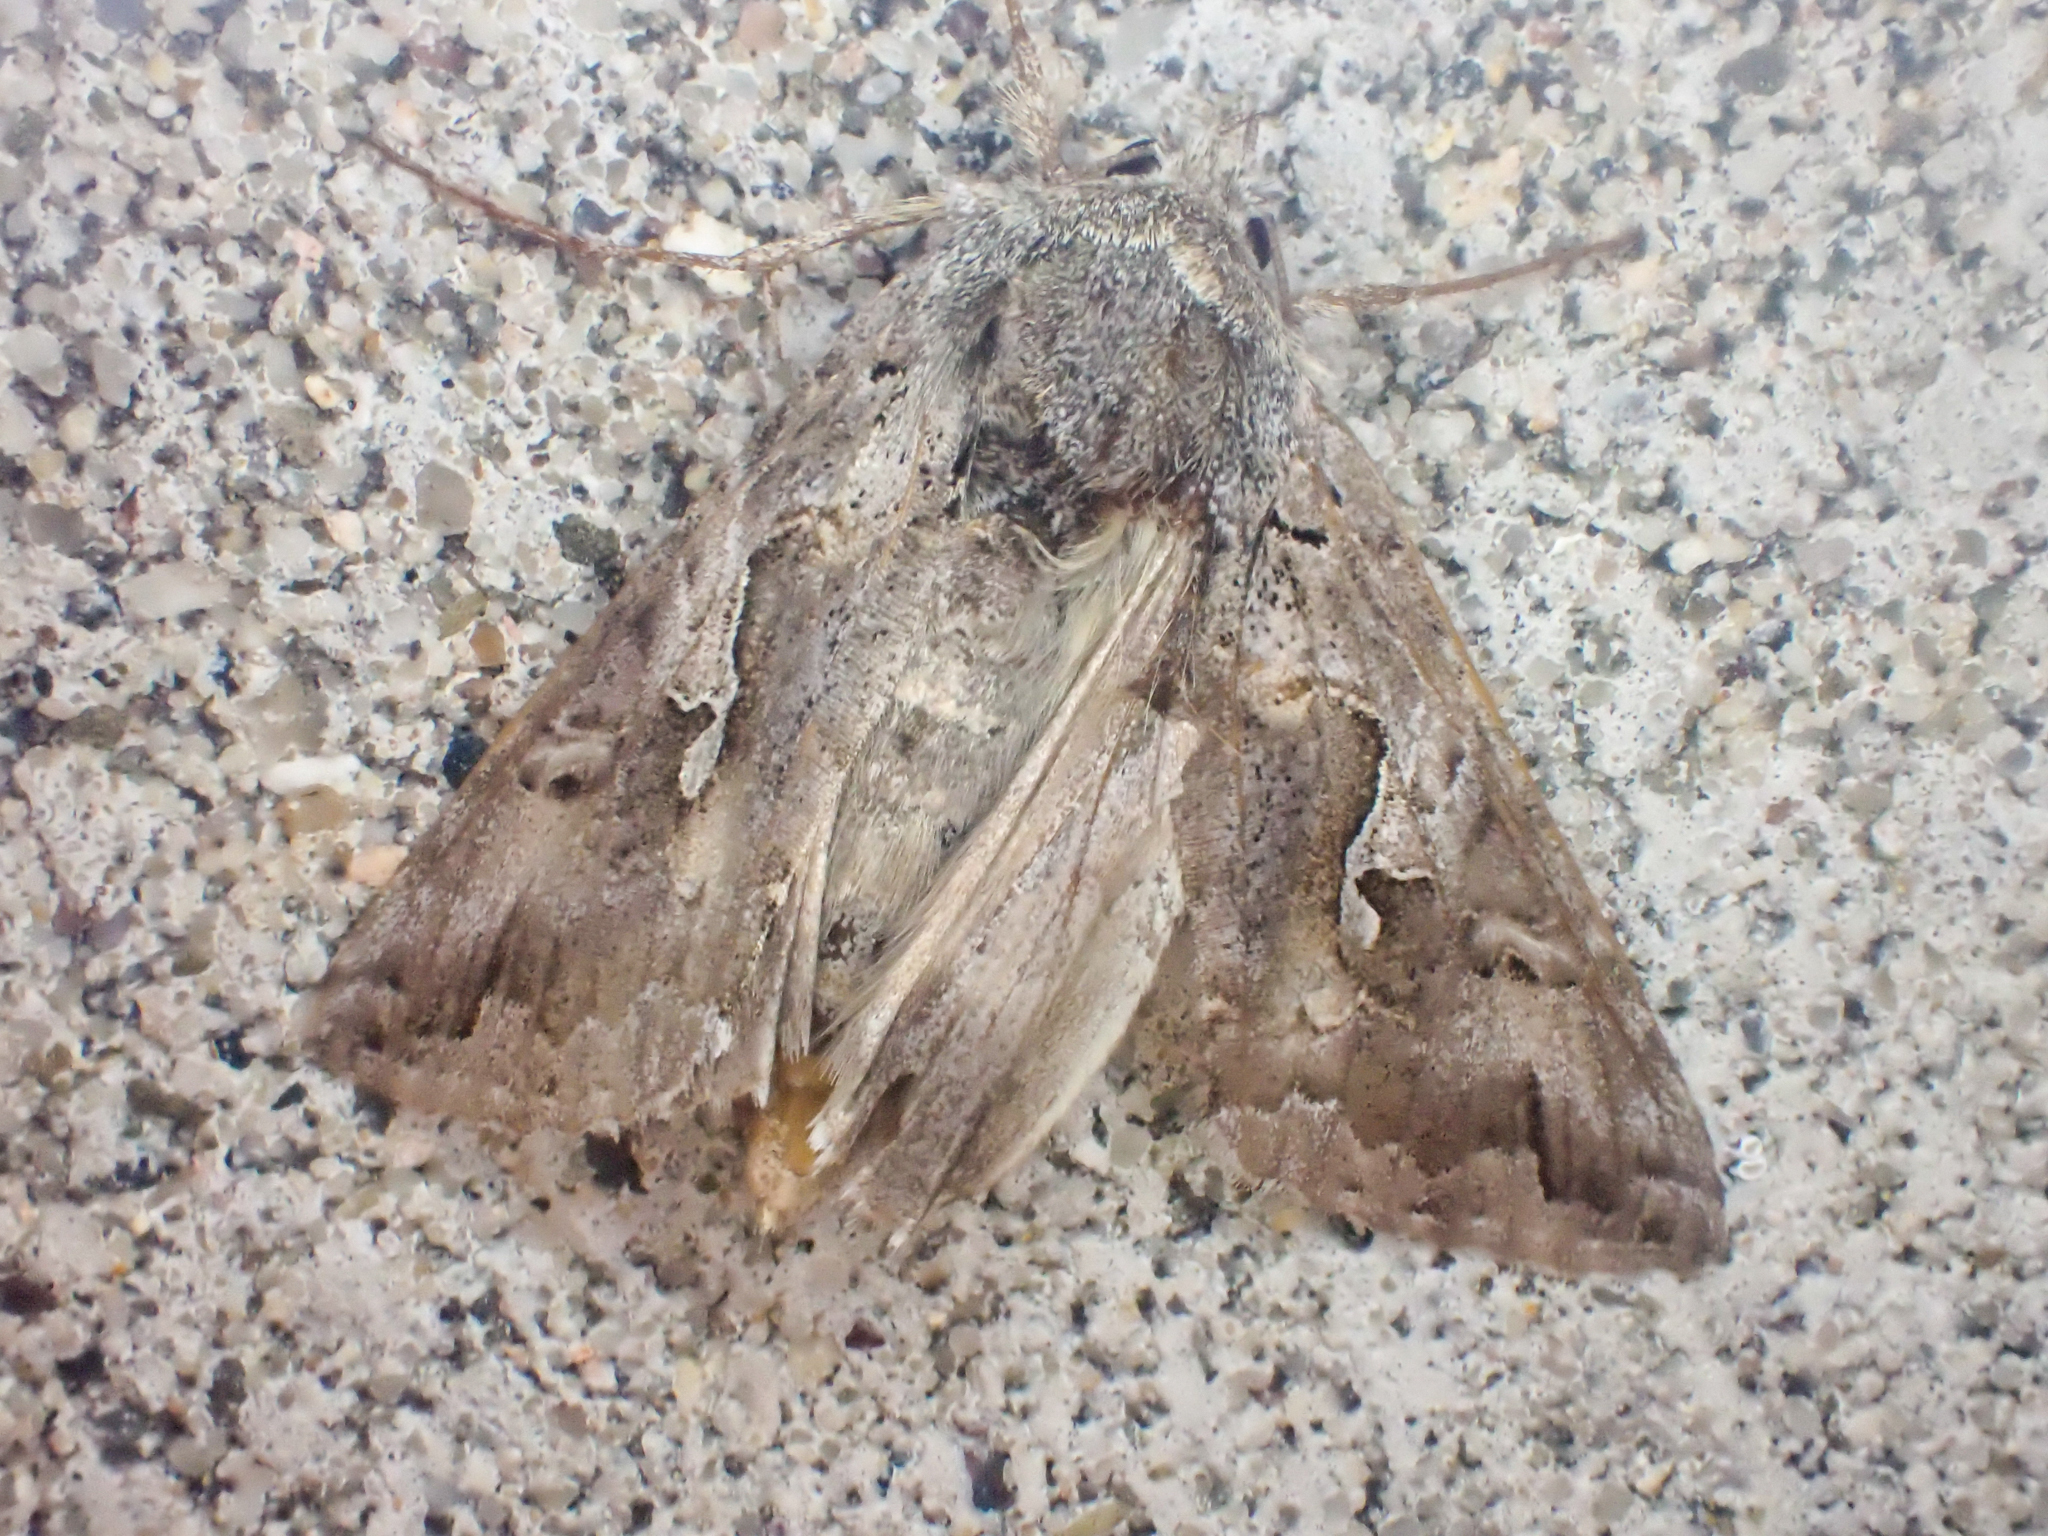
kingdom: Animalia
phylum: Arthropoda
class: Insecta
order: Lepidoptera
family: Noctuidae
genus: Autographa
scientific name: Autographa californica
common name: Alfalfa looper
